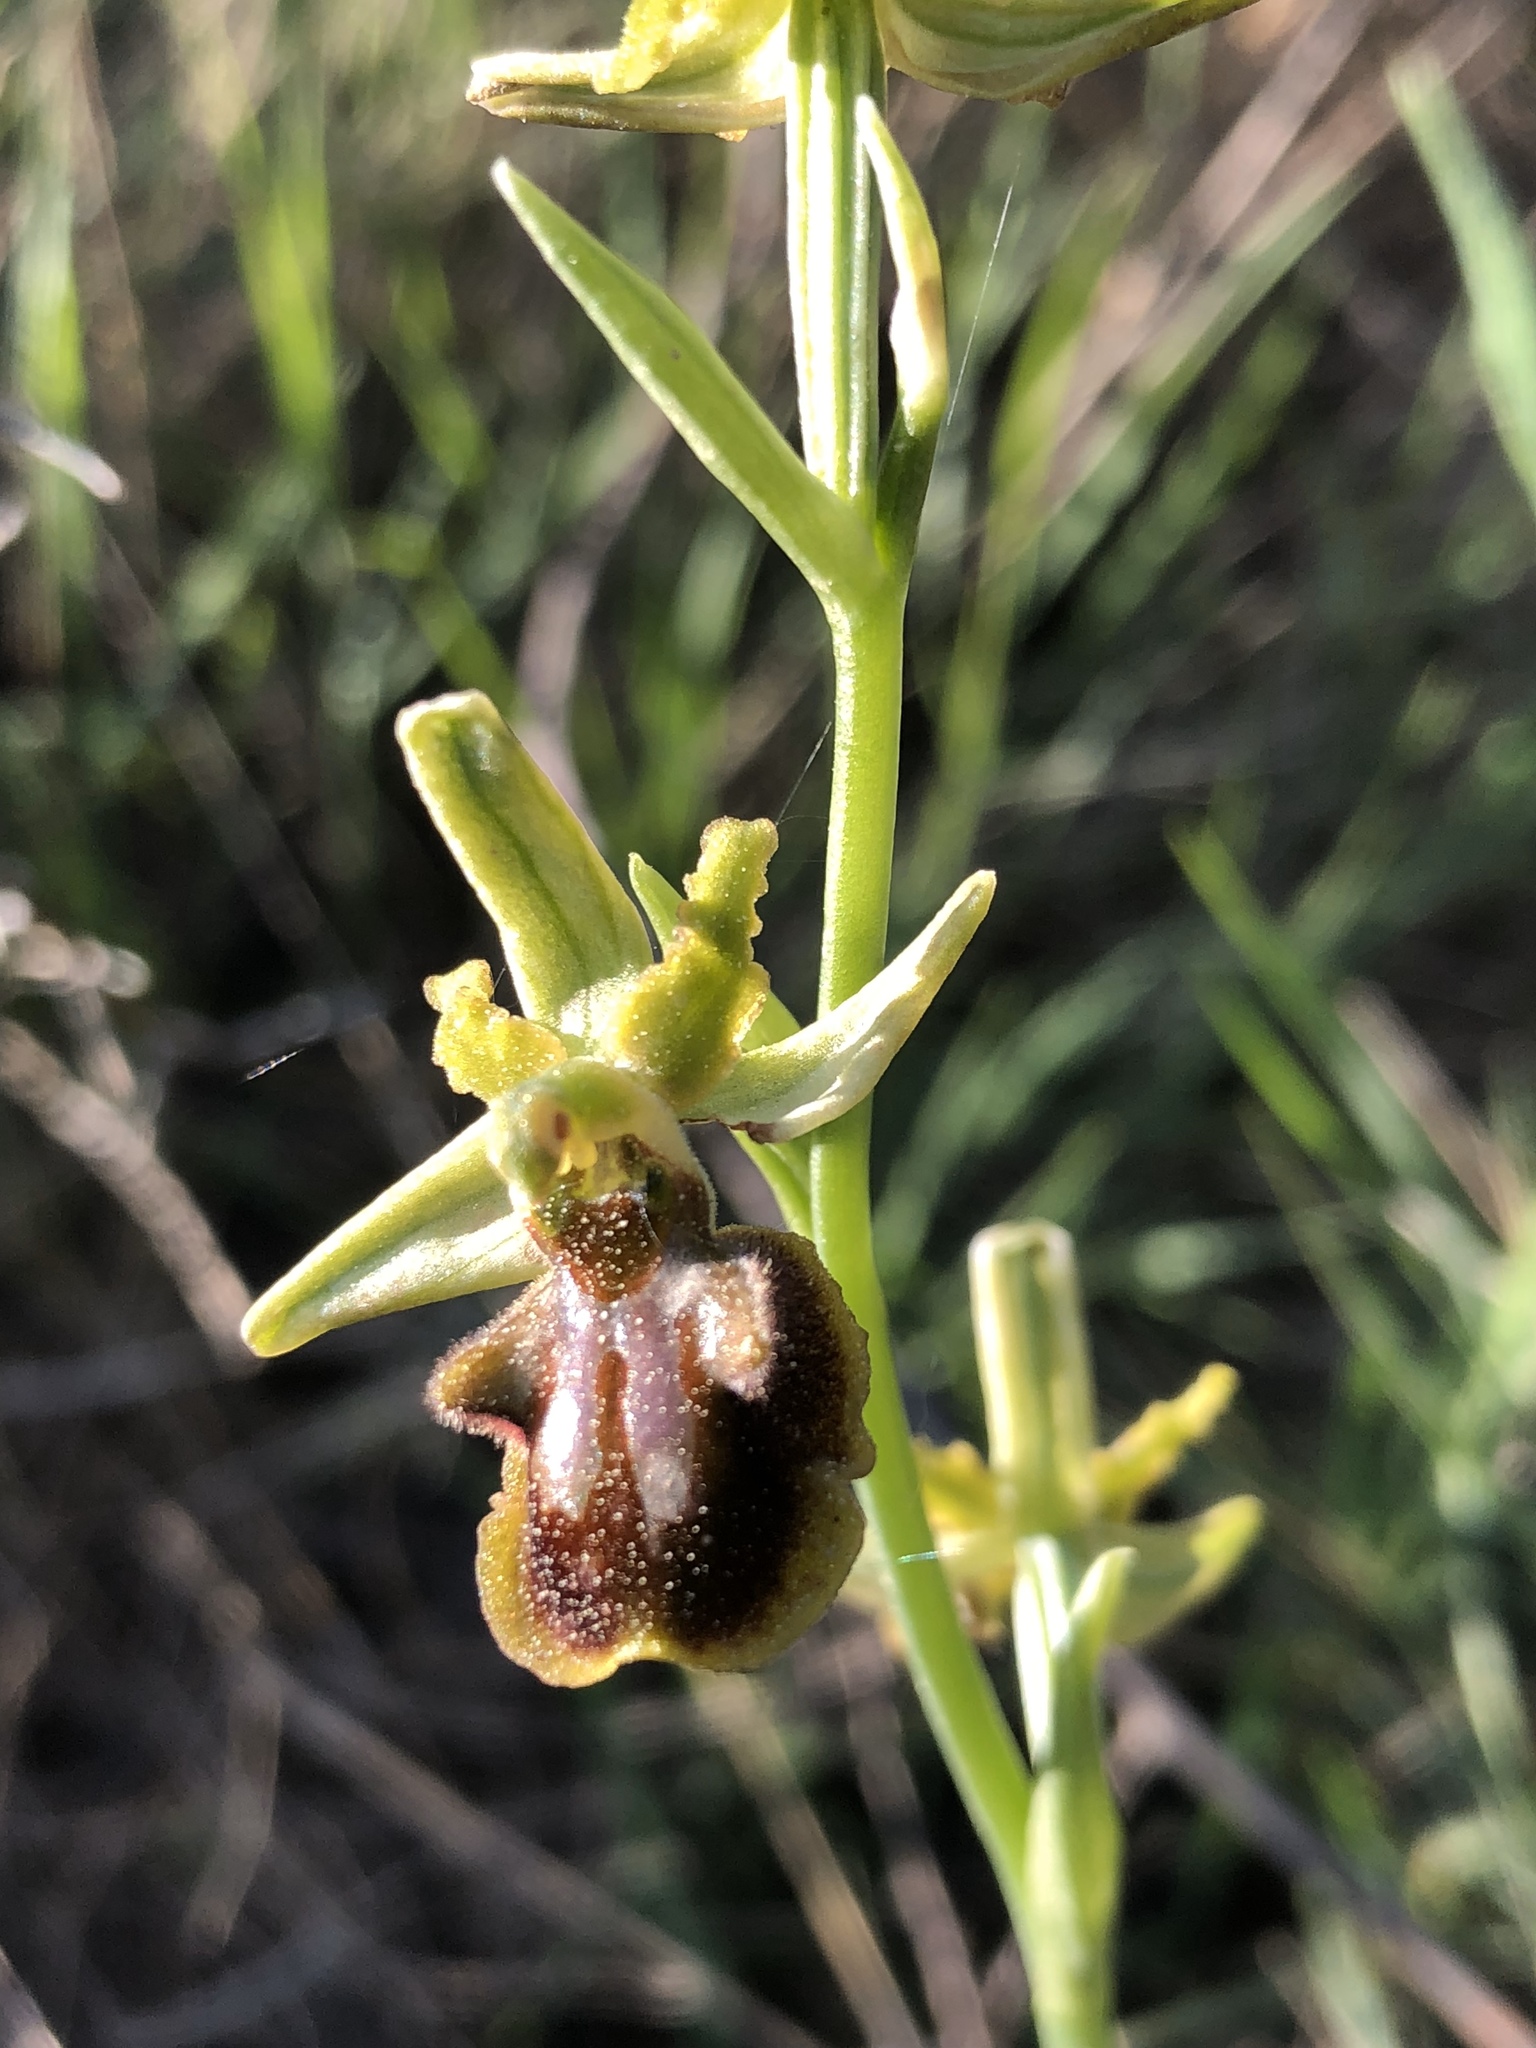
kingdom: Plantae
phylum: Tracheophyta
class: Liliopsida
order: Asparagales
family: Orchidaceae
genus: Ophrys
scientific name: Ophrys sphegodes
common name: Early spider-orchid
